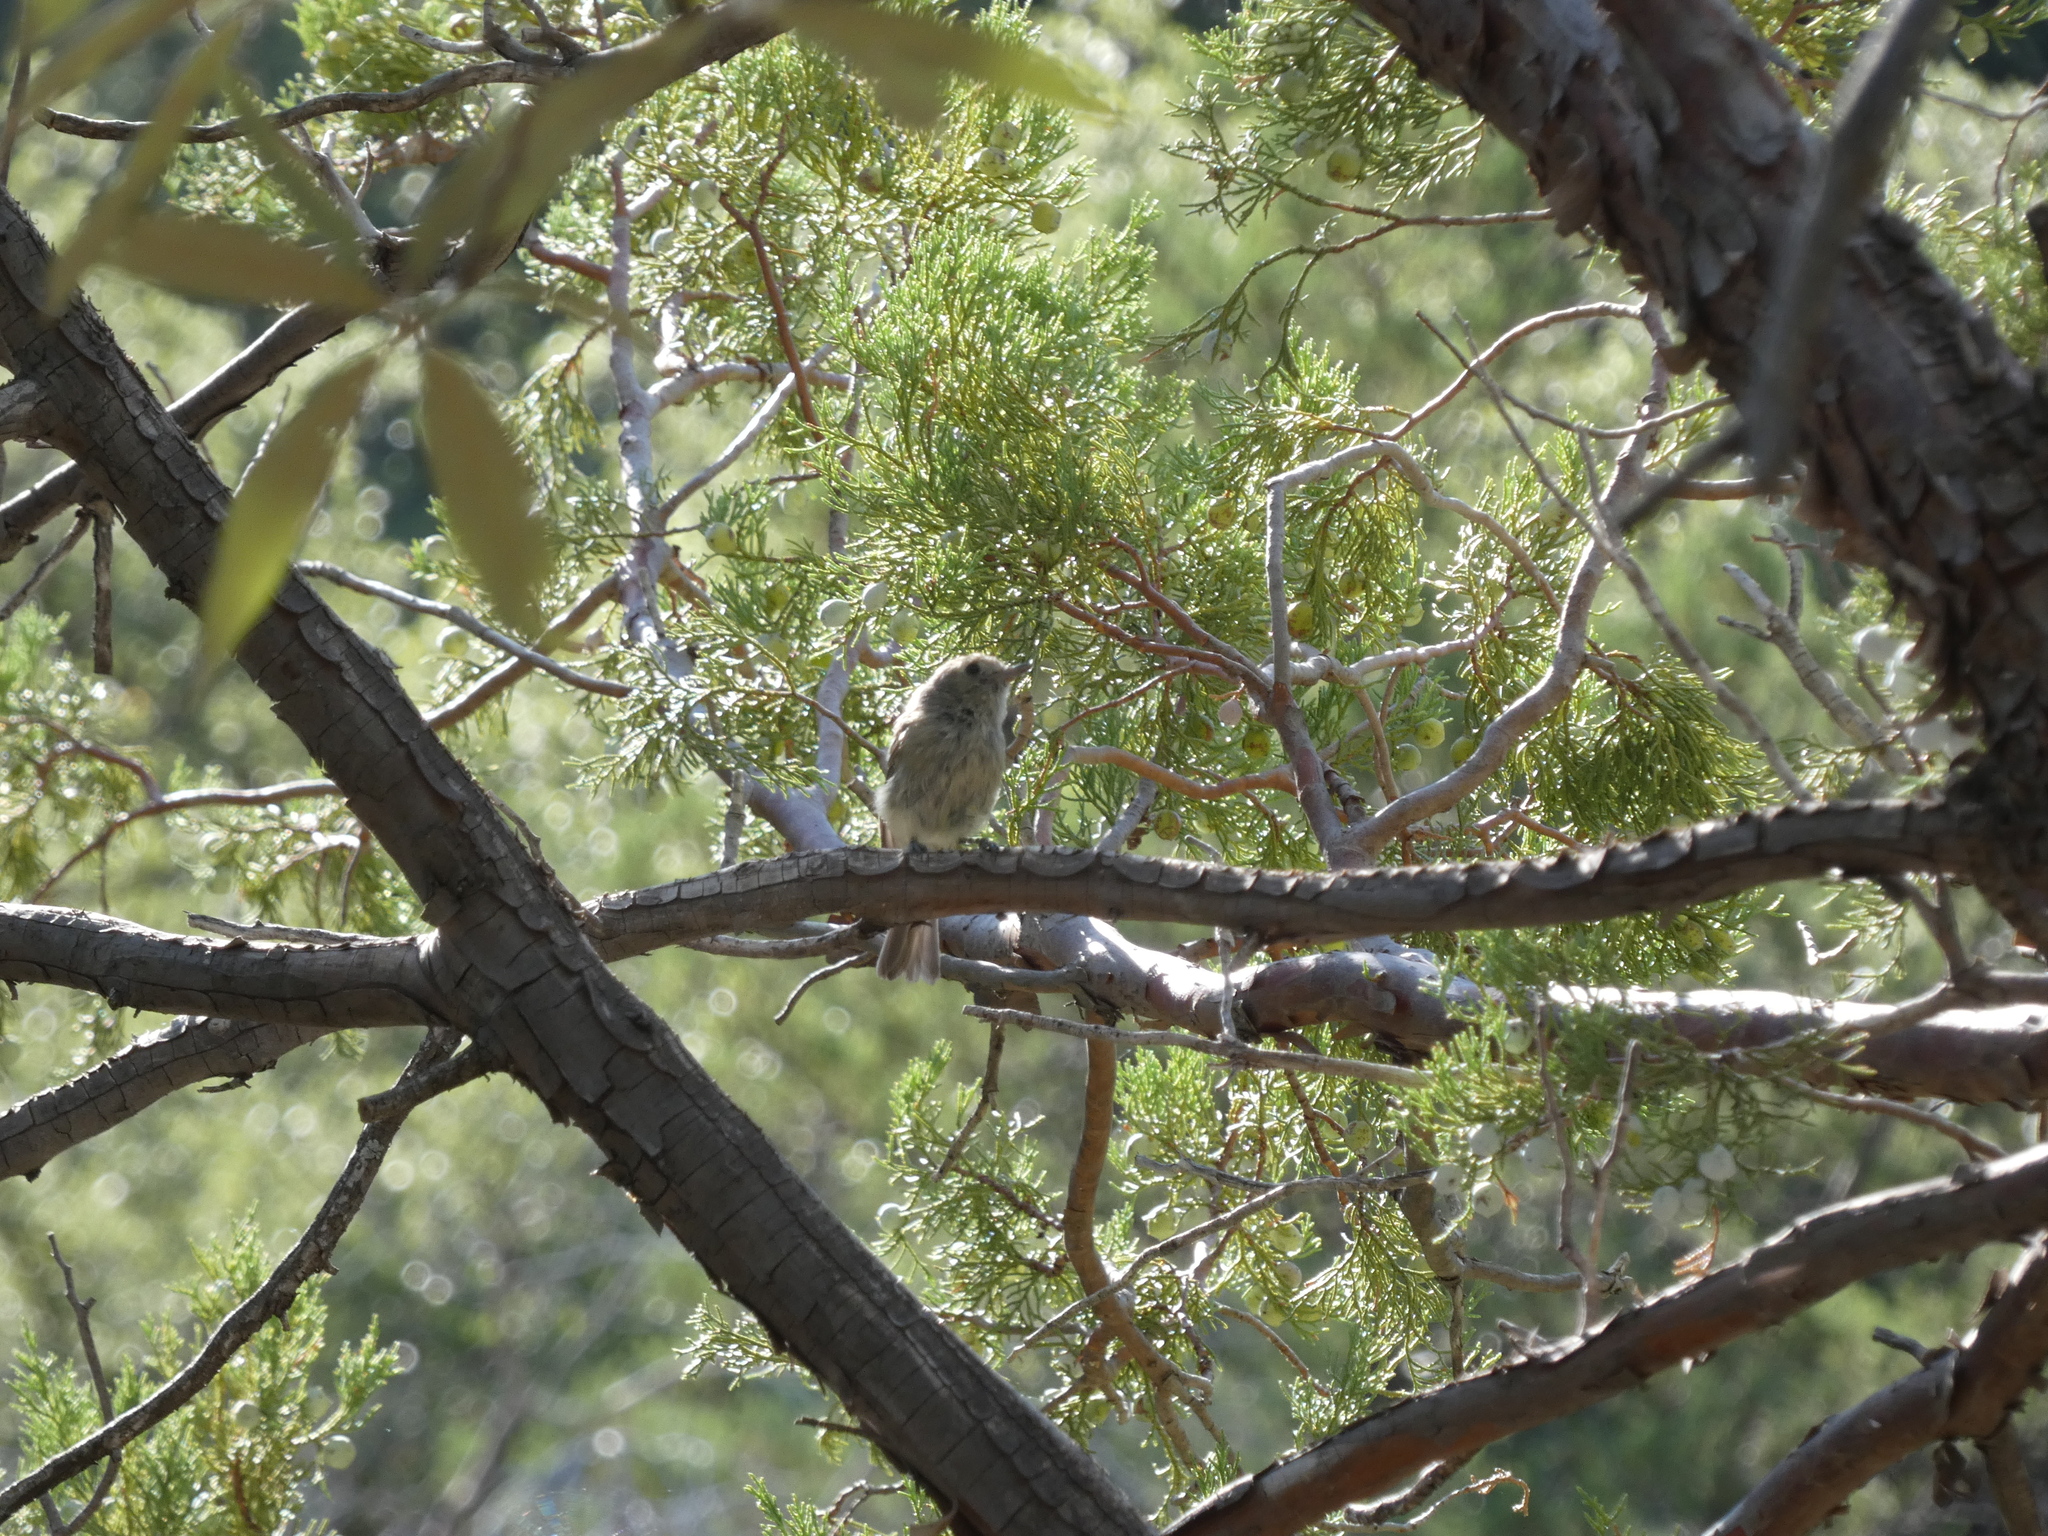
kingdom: Animalia
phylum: Chordata
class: Aves
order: Passeriformes
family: Vireonidae
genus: Vireo
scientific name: Vireo huttoni
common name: Hutton's vireo
